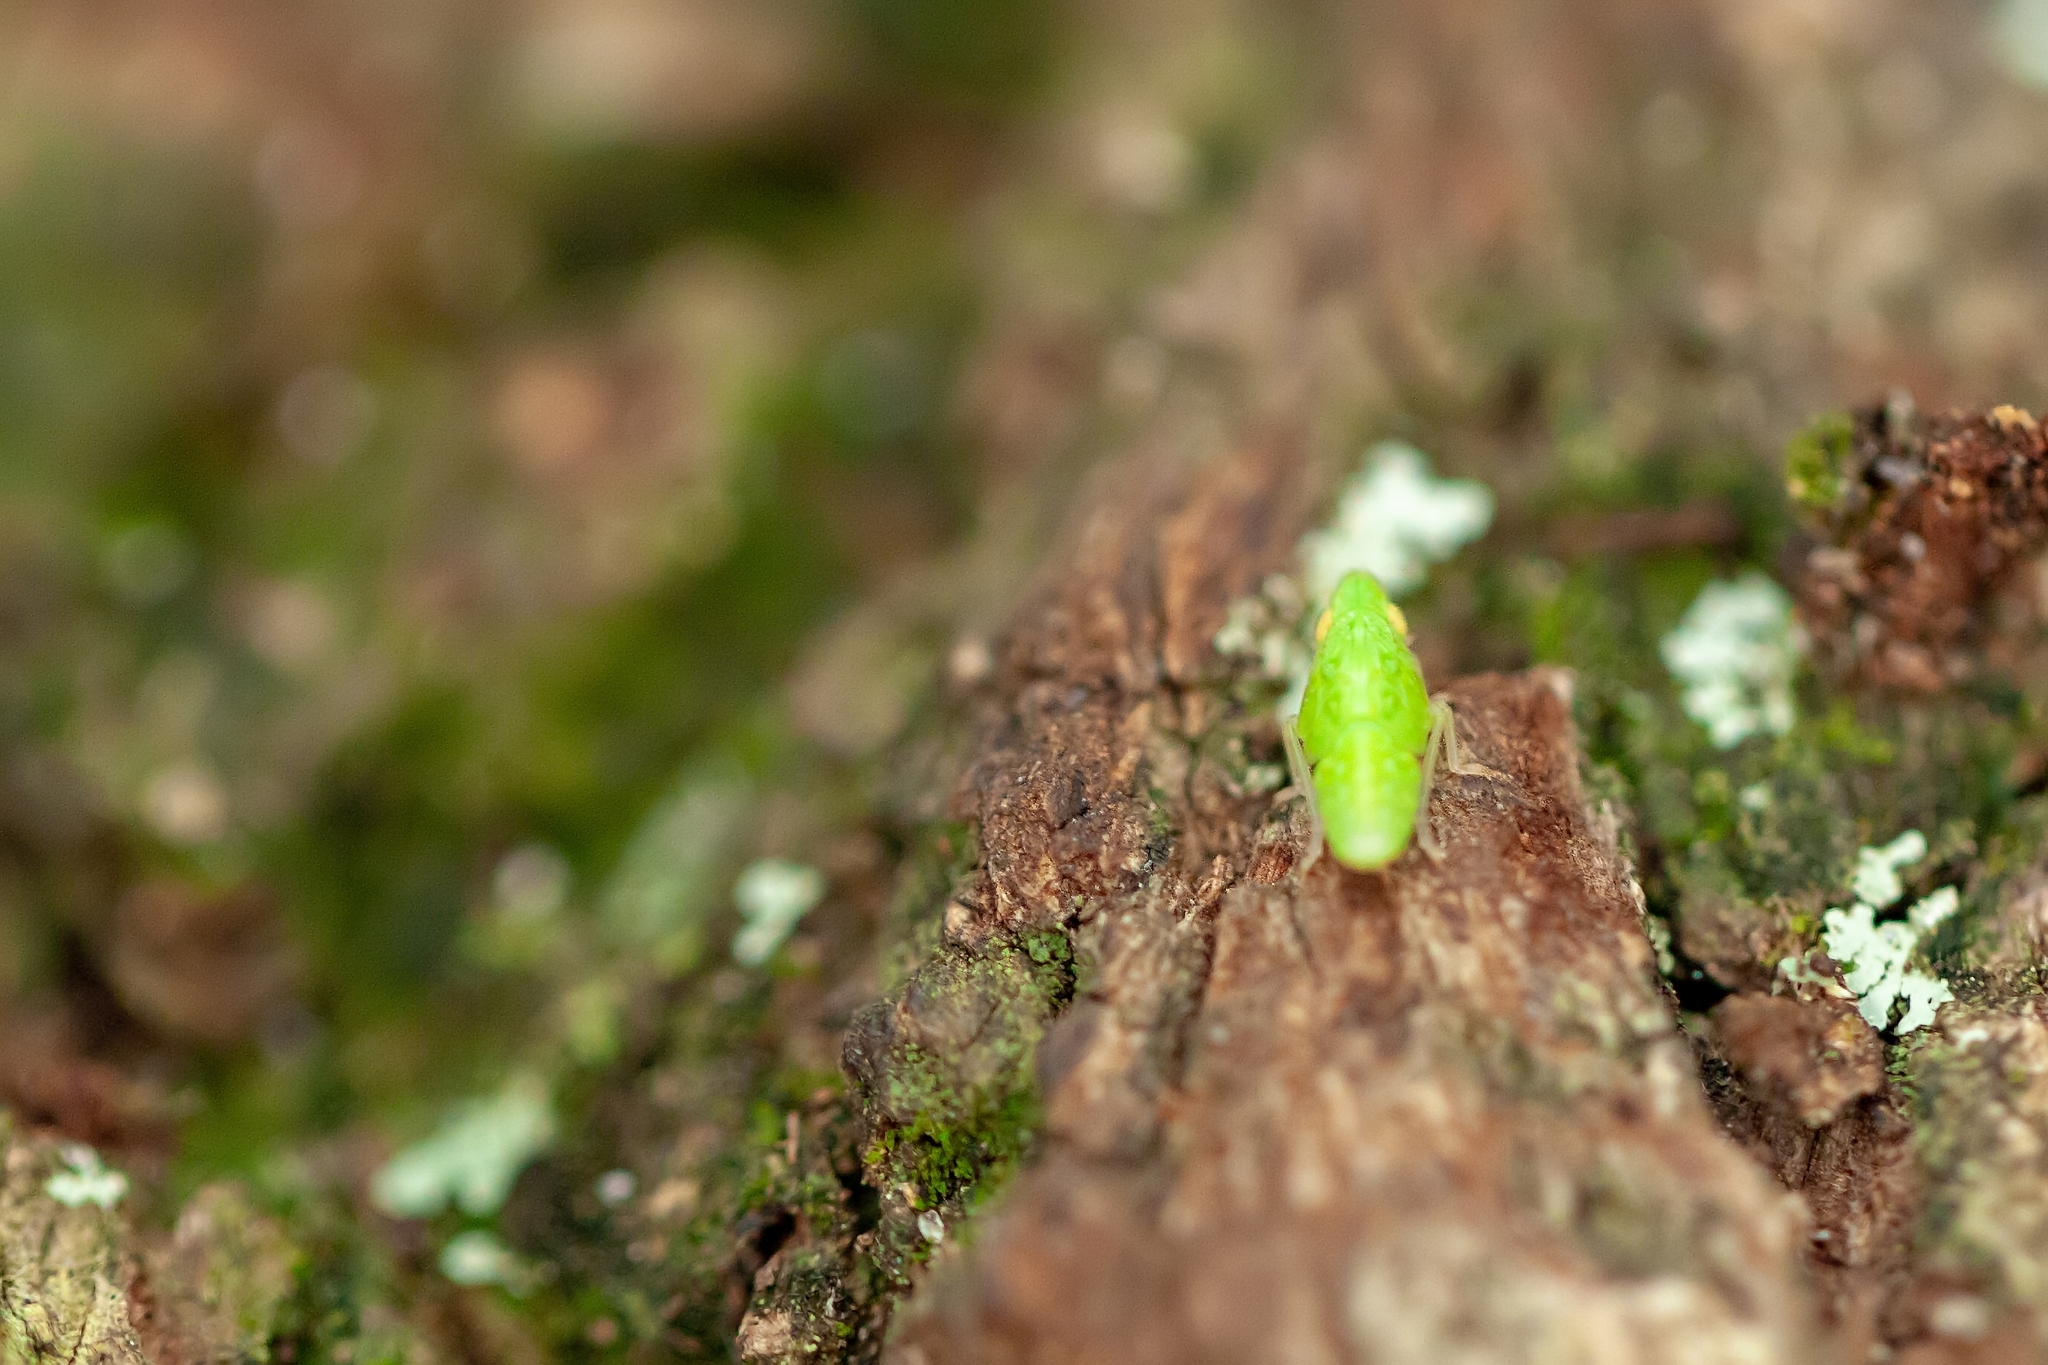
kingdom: Animalia
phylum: Arthropoda
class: Insecta
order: Hemiptera
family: Tropiduchidae
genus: Pelitropis
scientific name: Pelitropis rotulata
